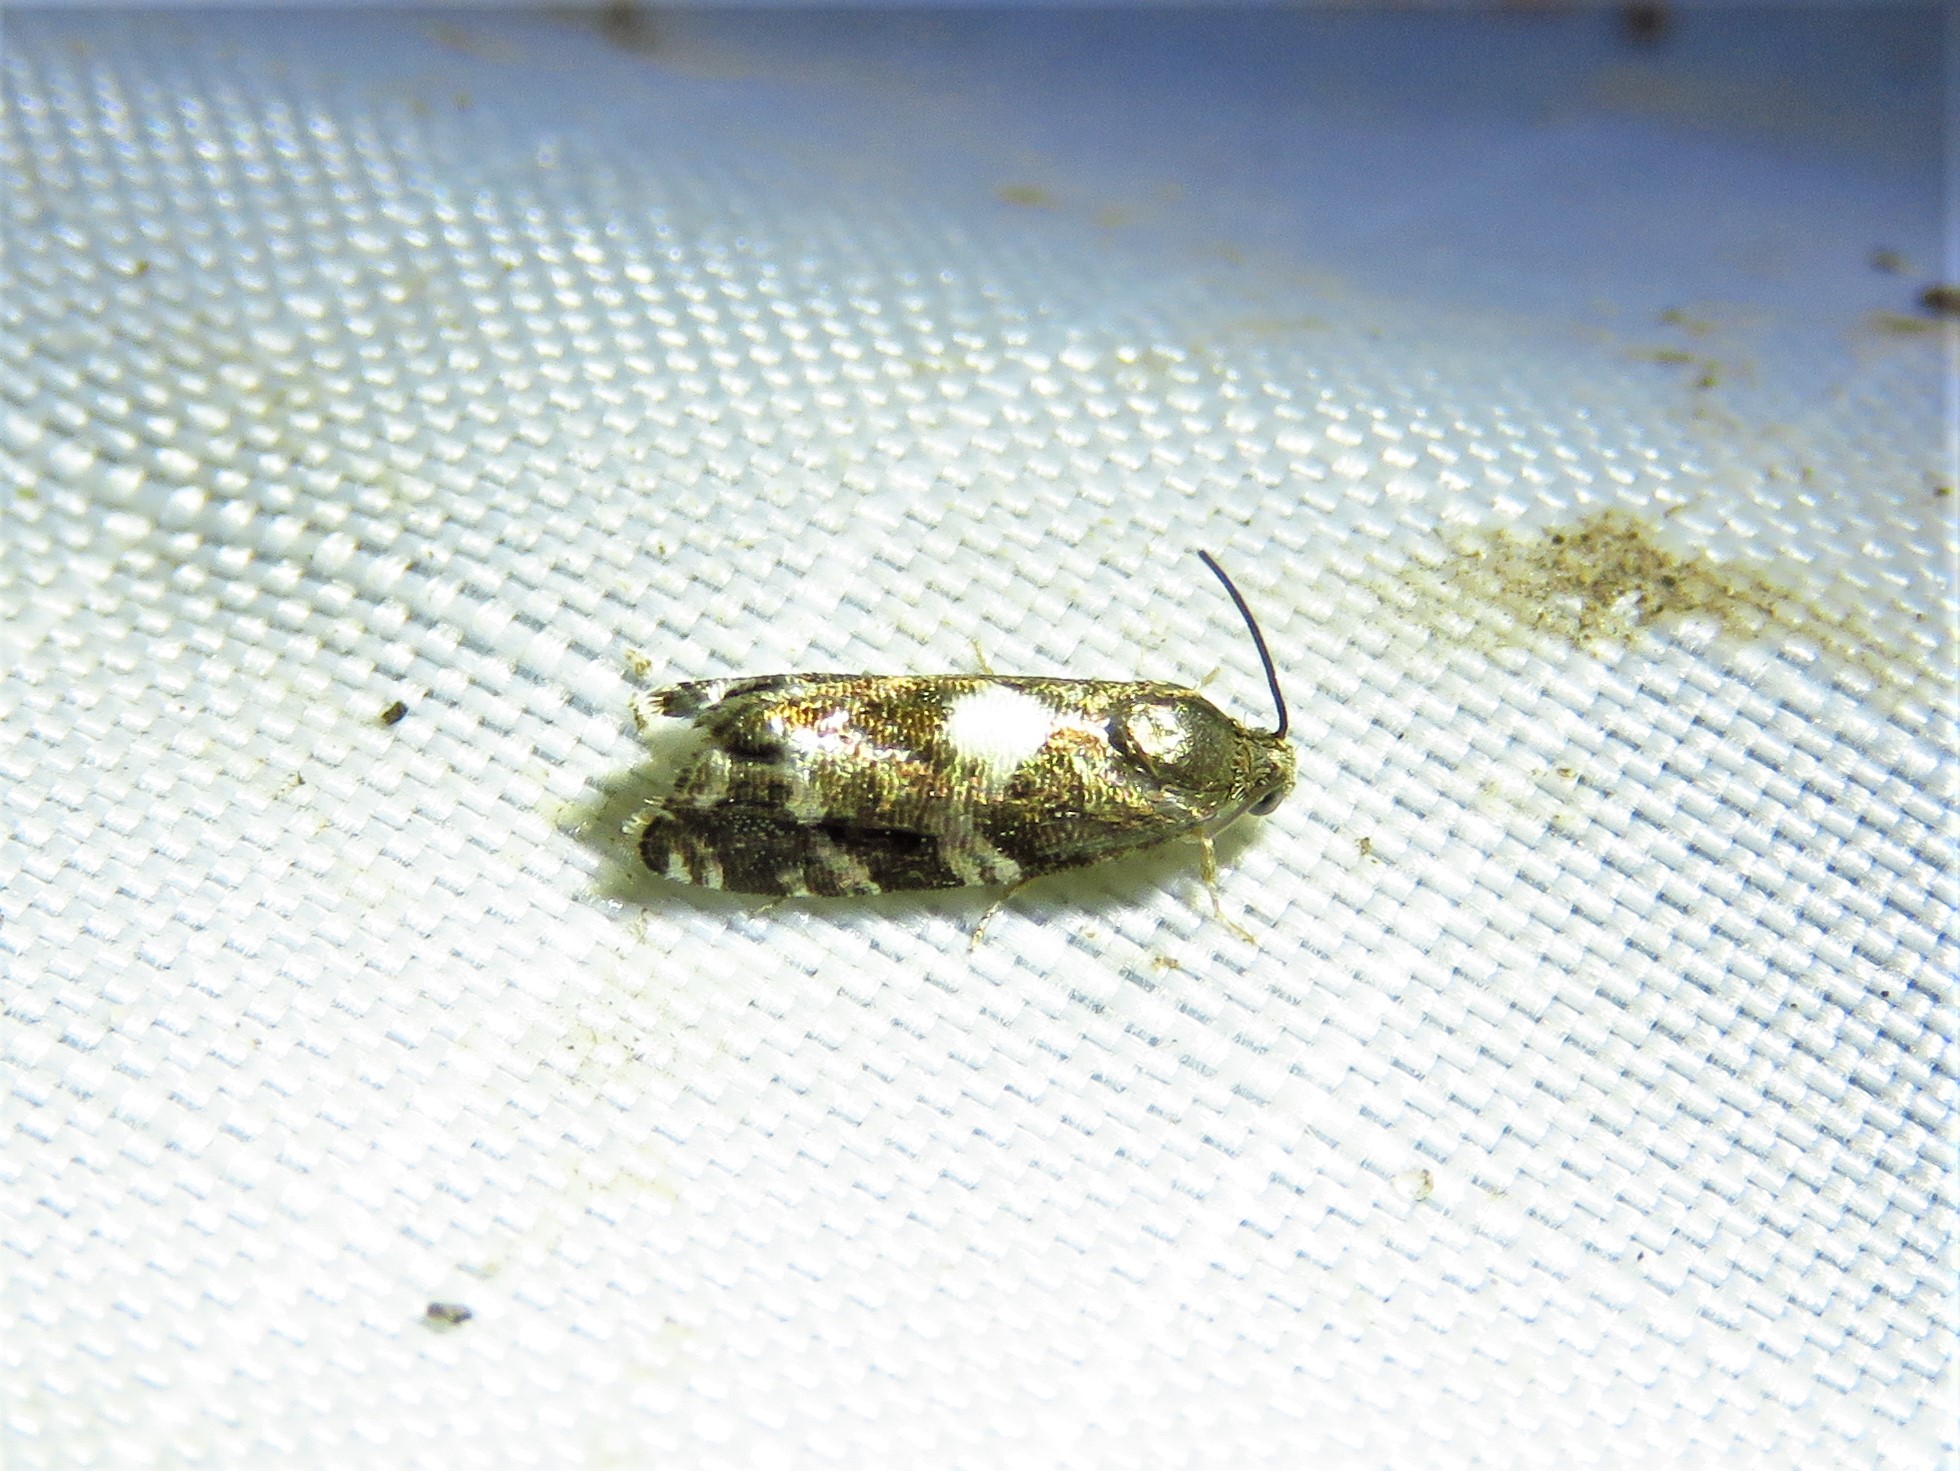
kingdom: Animalia
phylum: Arthropoda
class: Insecta
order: Lepidoptera
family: Tortricidae
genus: Cydia
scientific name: Cydia albimaculana
